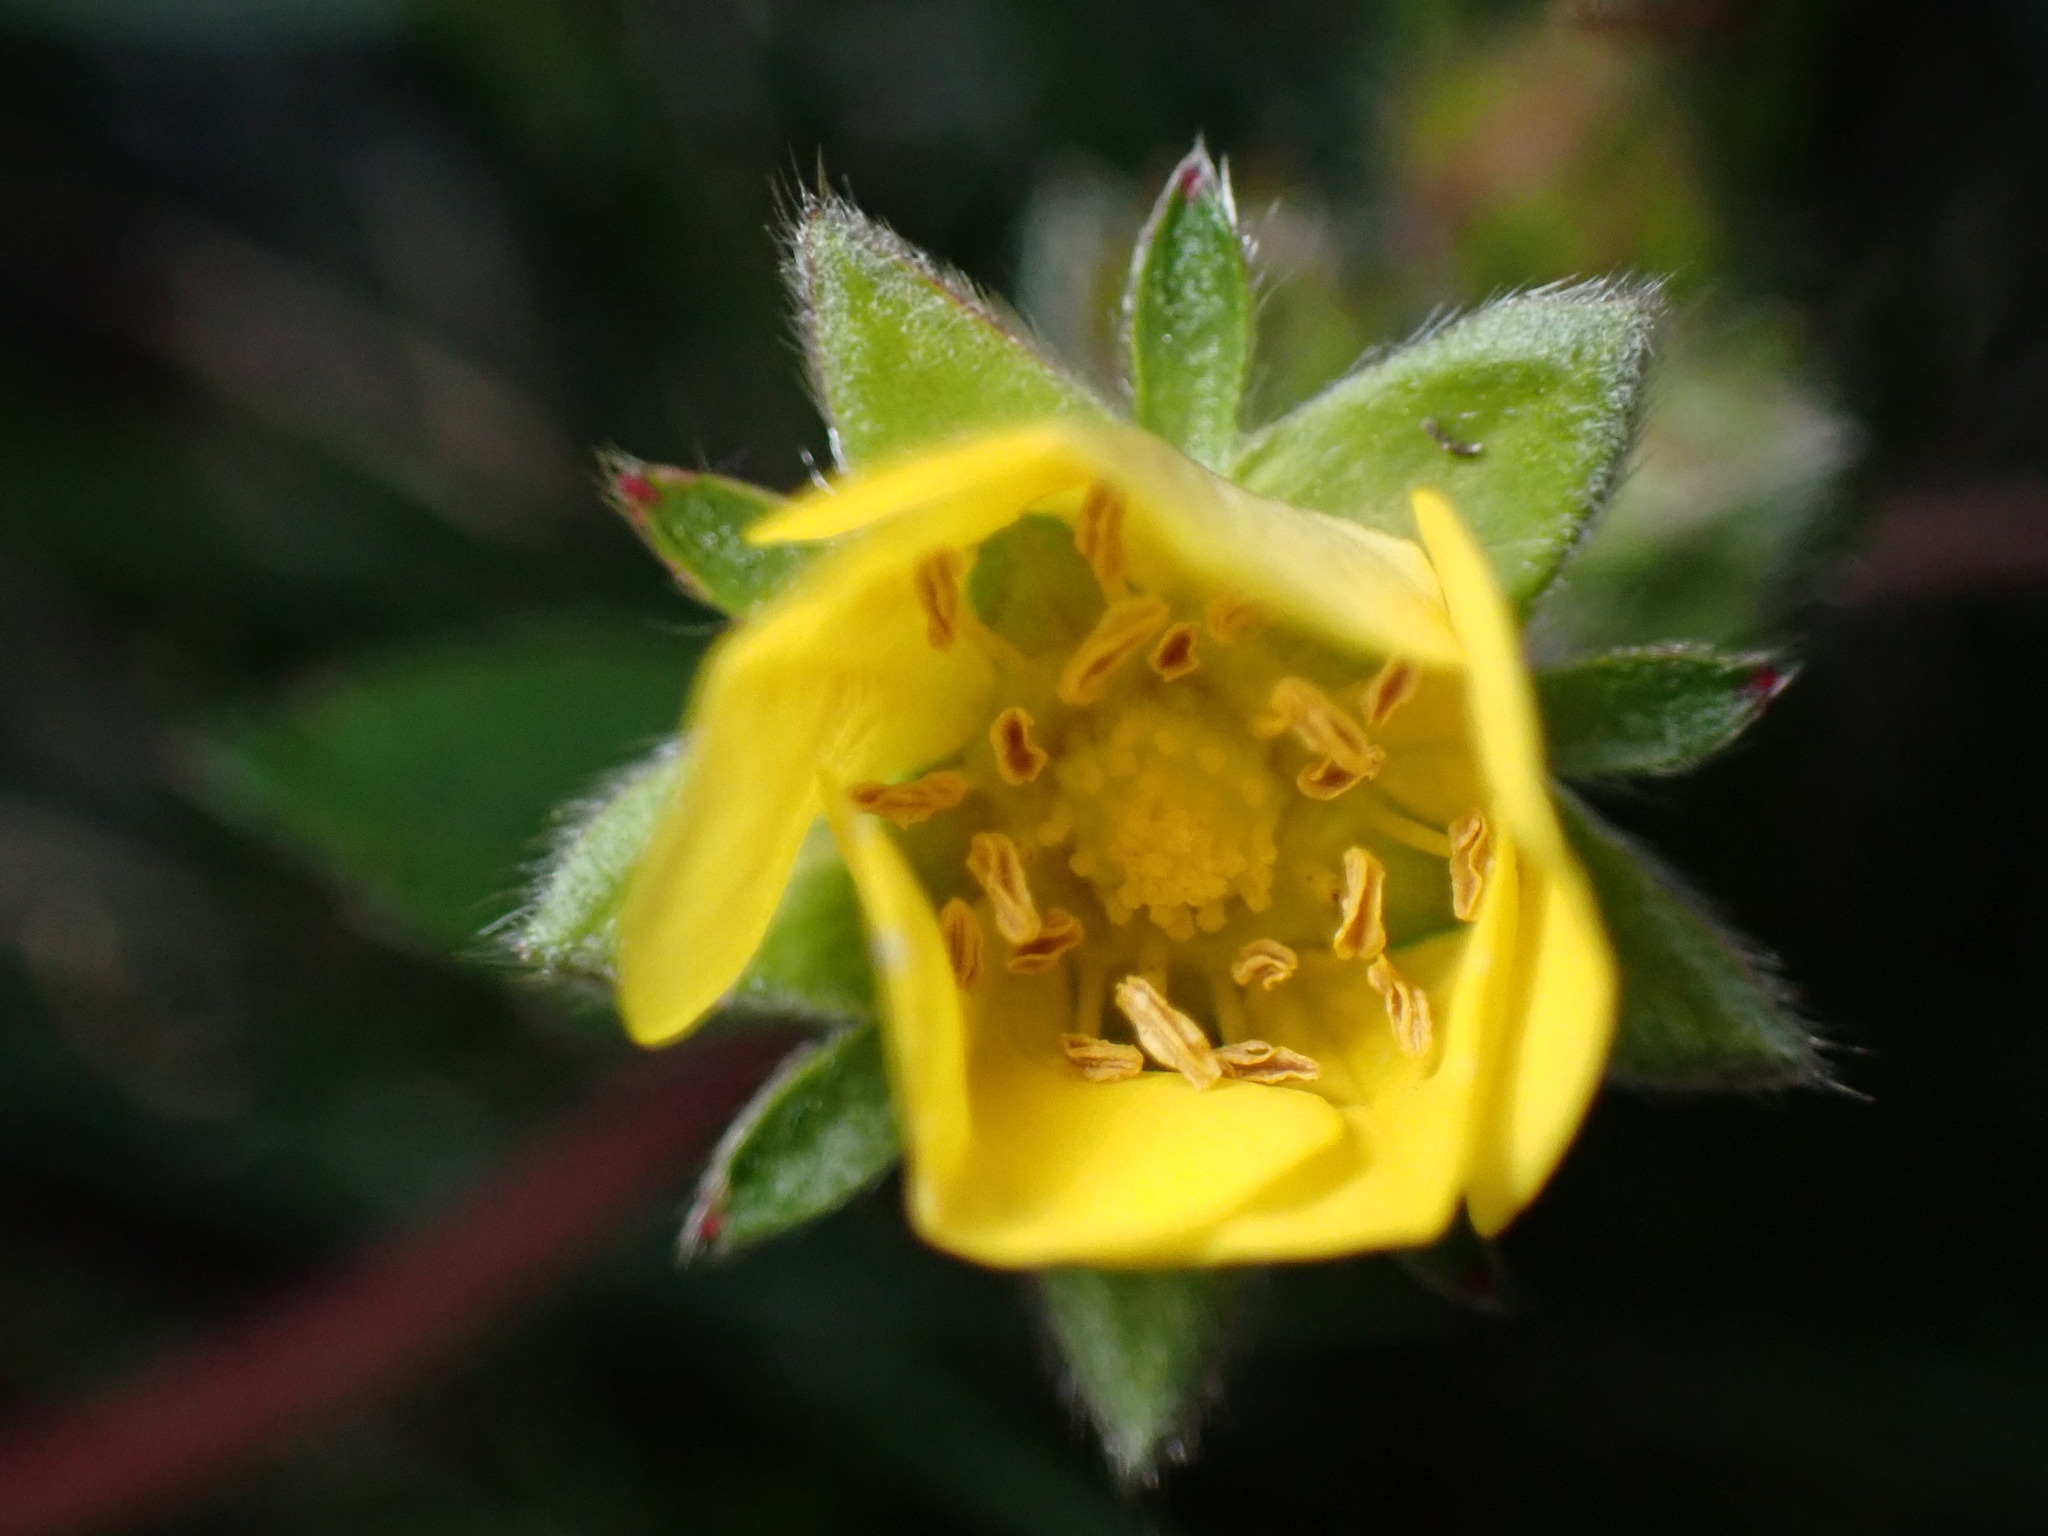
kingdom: Plantae
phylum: Tracheophyta
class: Magnoliopsida
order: Rosales
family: Rosaceae
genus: Potentilla
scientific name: Potentilla stolonifera
